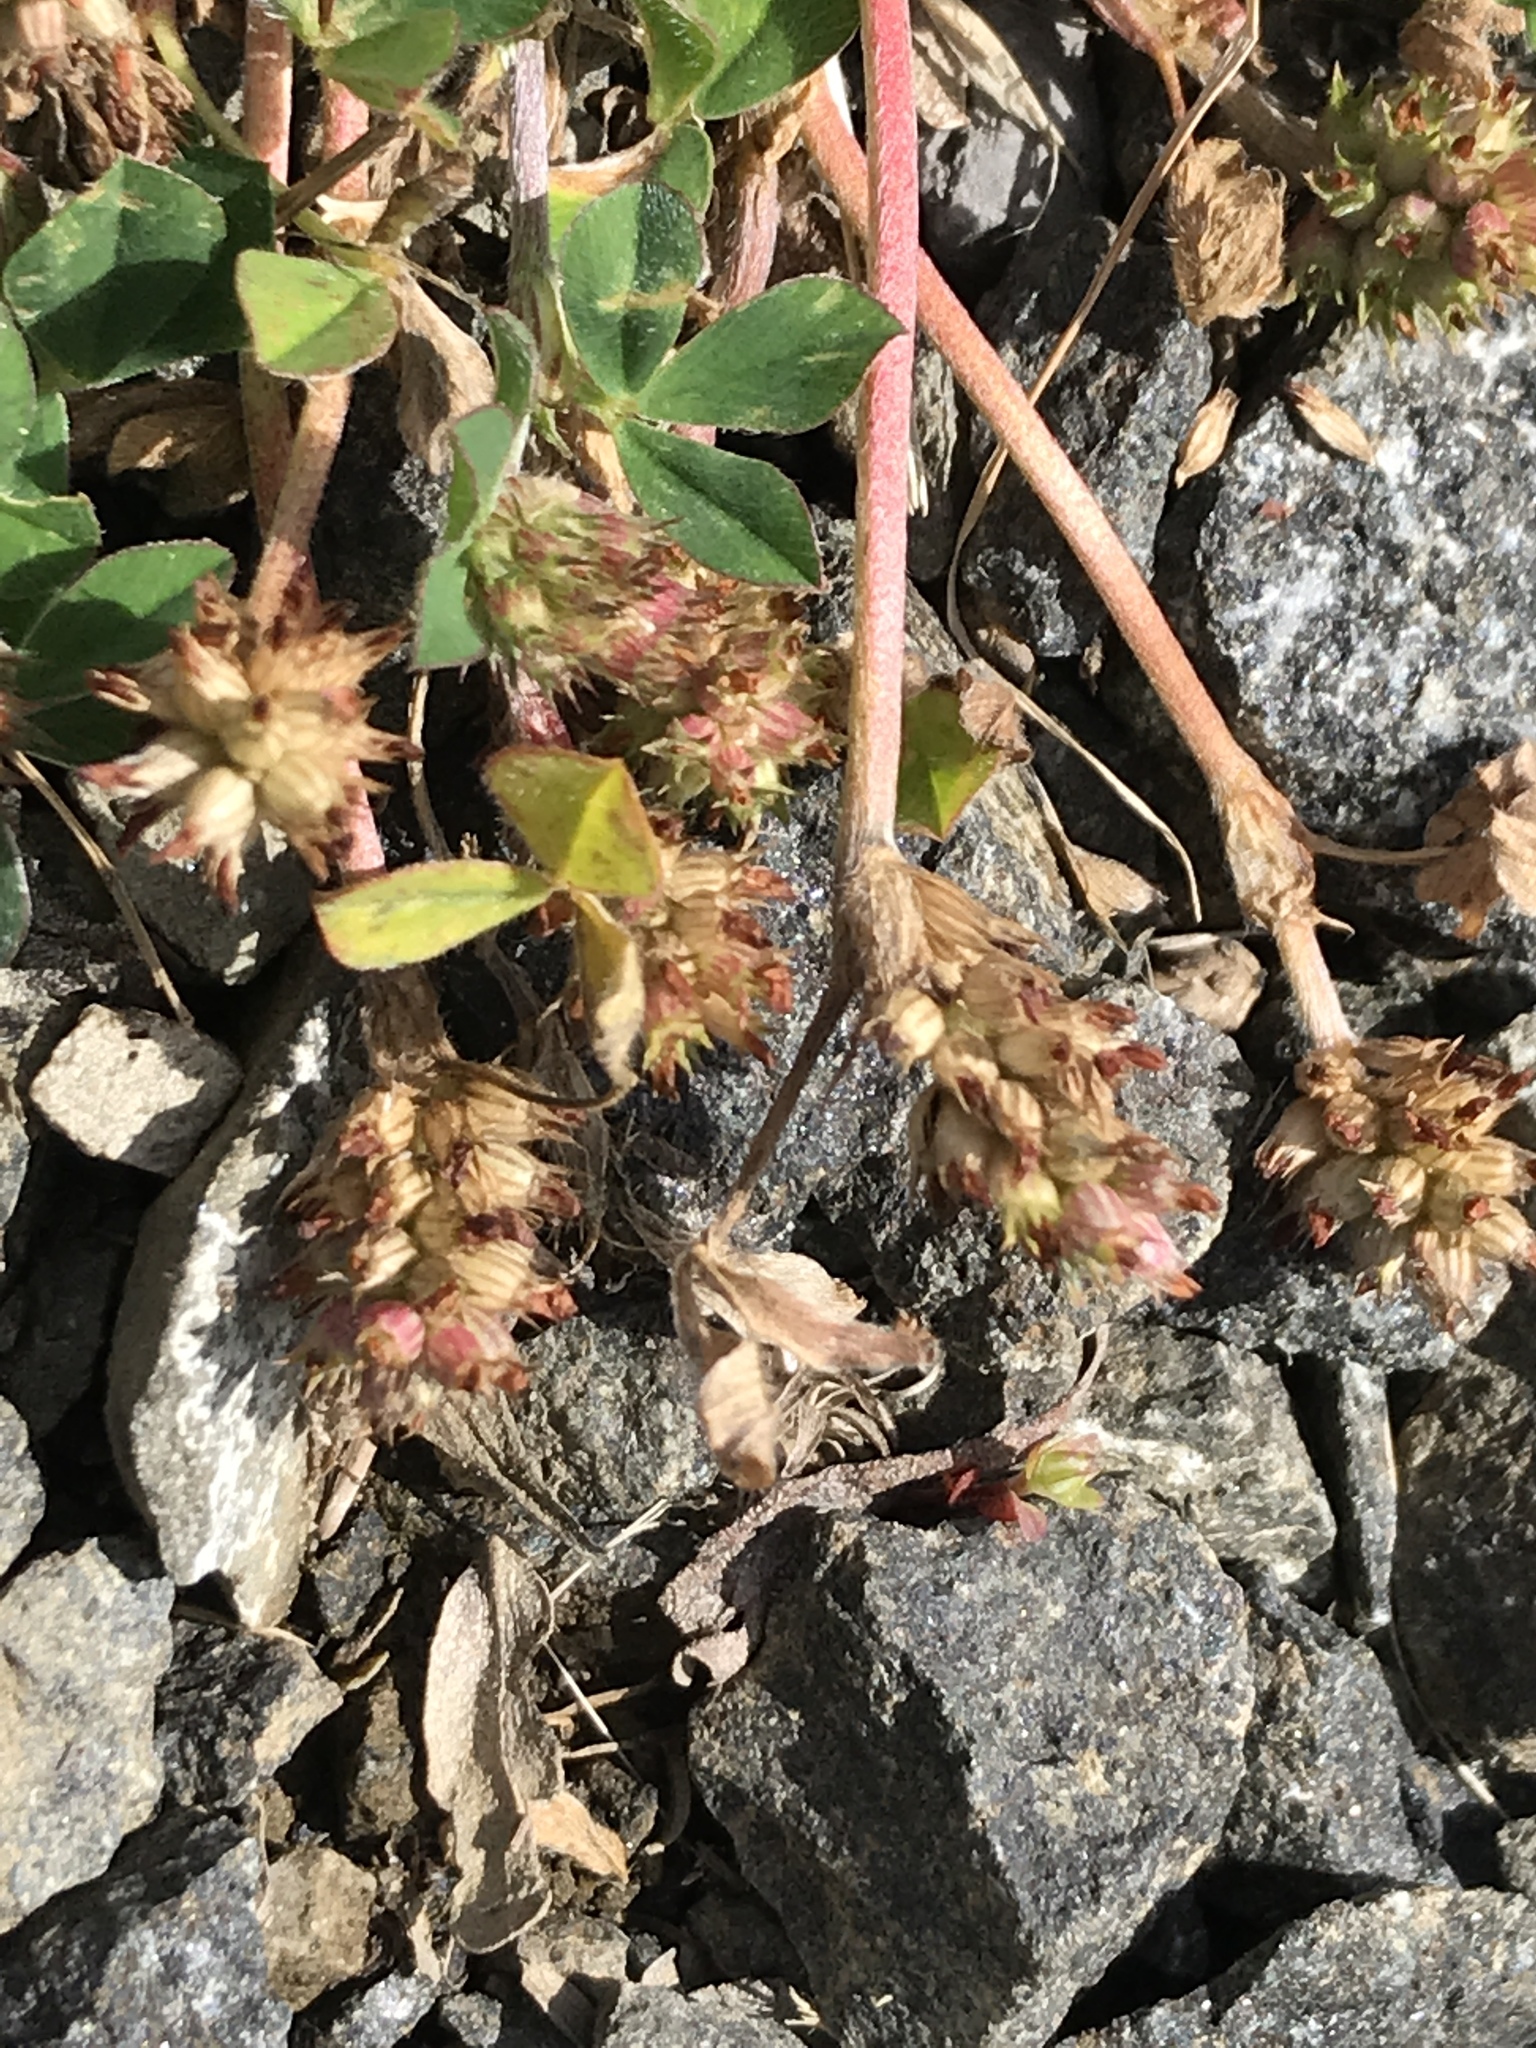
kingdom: Plantae
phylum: Tracheophyta
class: Magnoliopsida
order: Fabales
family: Fabaceae
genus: Trifolium
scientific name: Trifolium striatum
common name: Knotted clover
